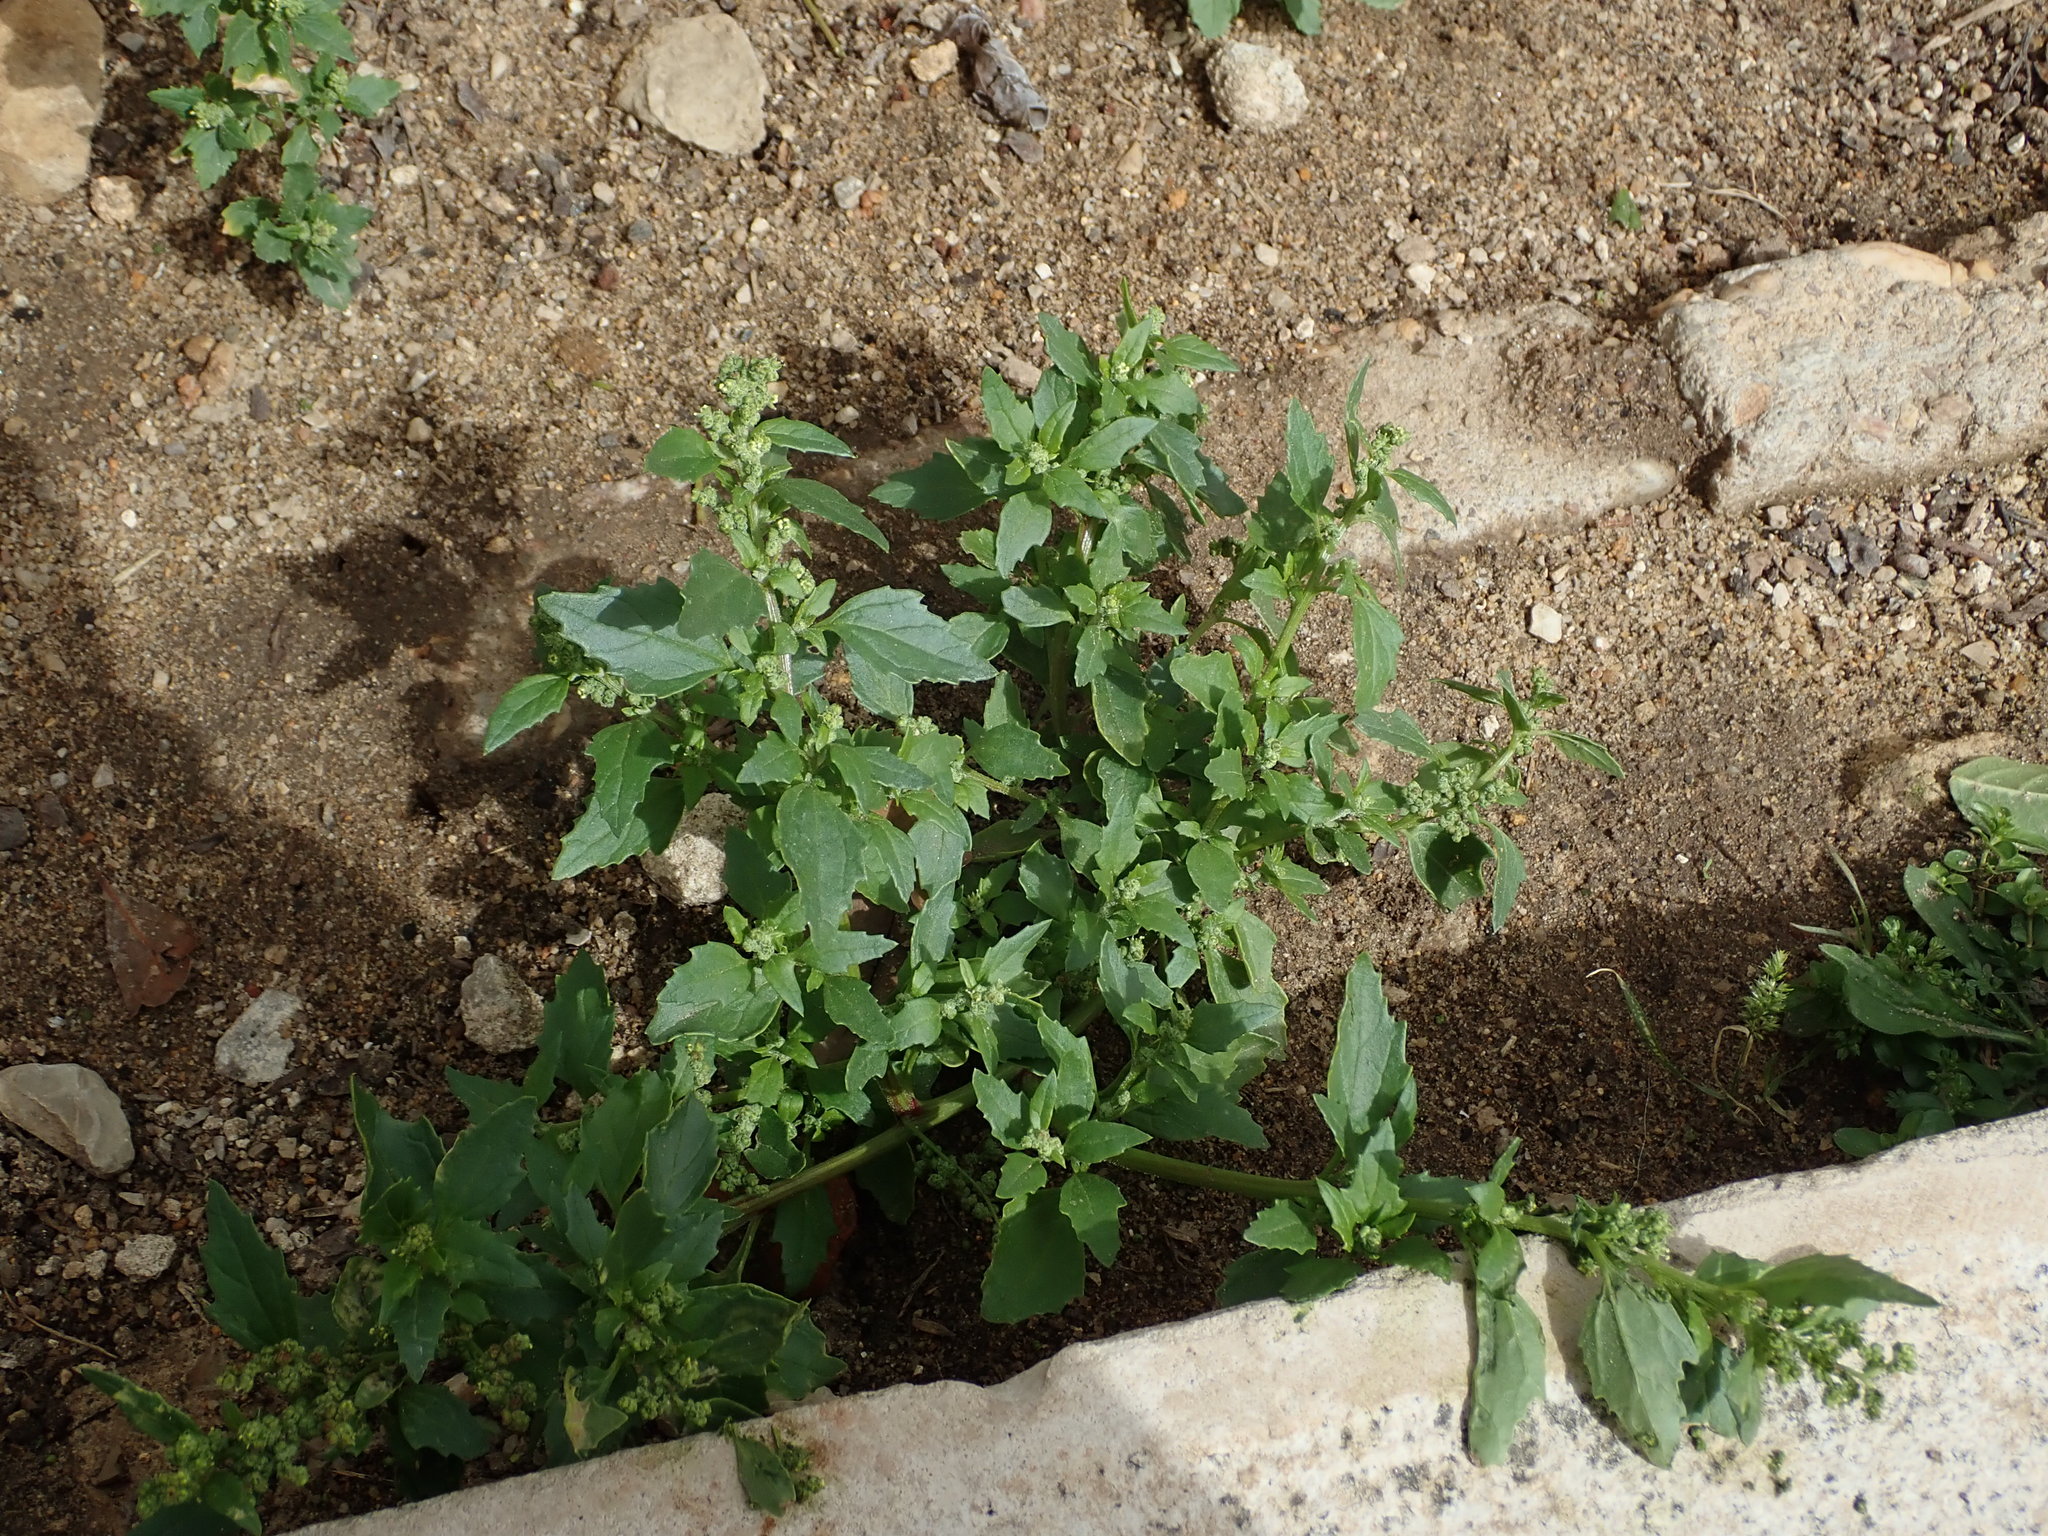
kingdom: Plantae
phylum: Tracheophyta
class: Magnoliopsida
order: Caryophyllales
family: Amaranthaceae
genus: Chenopodiastrum
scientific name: Chenopodiastrum murale
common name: Sowbane
